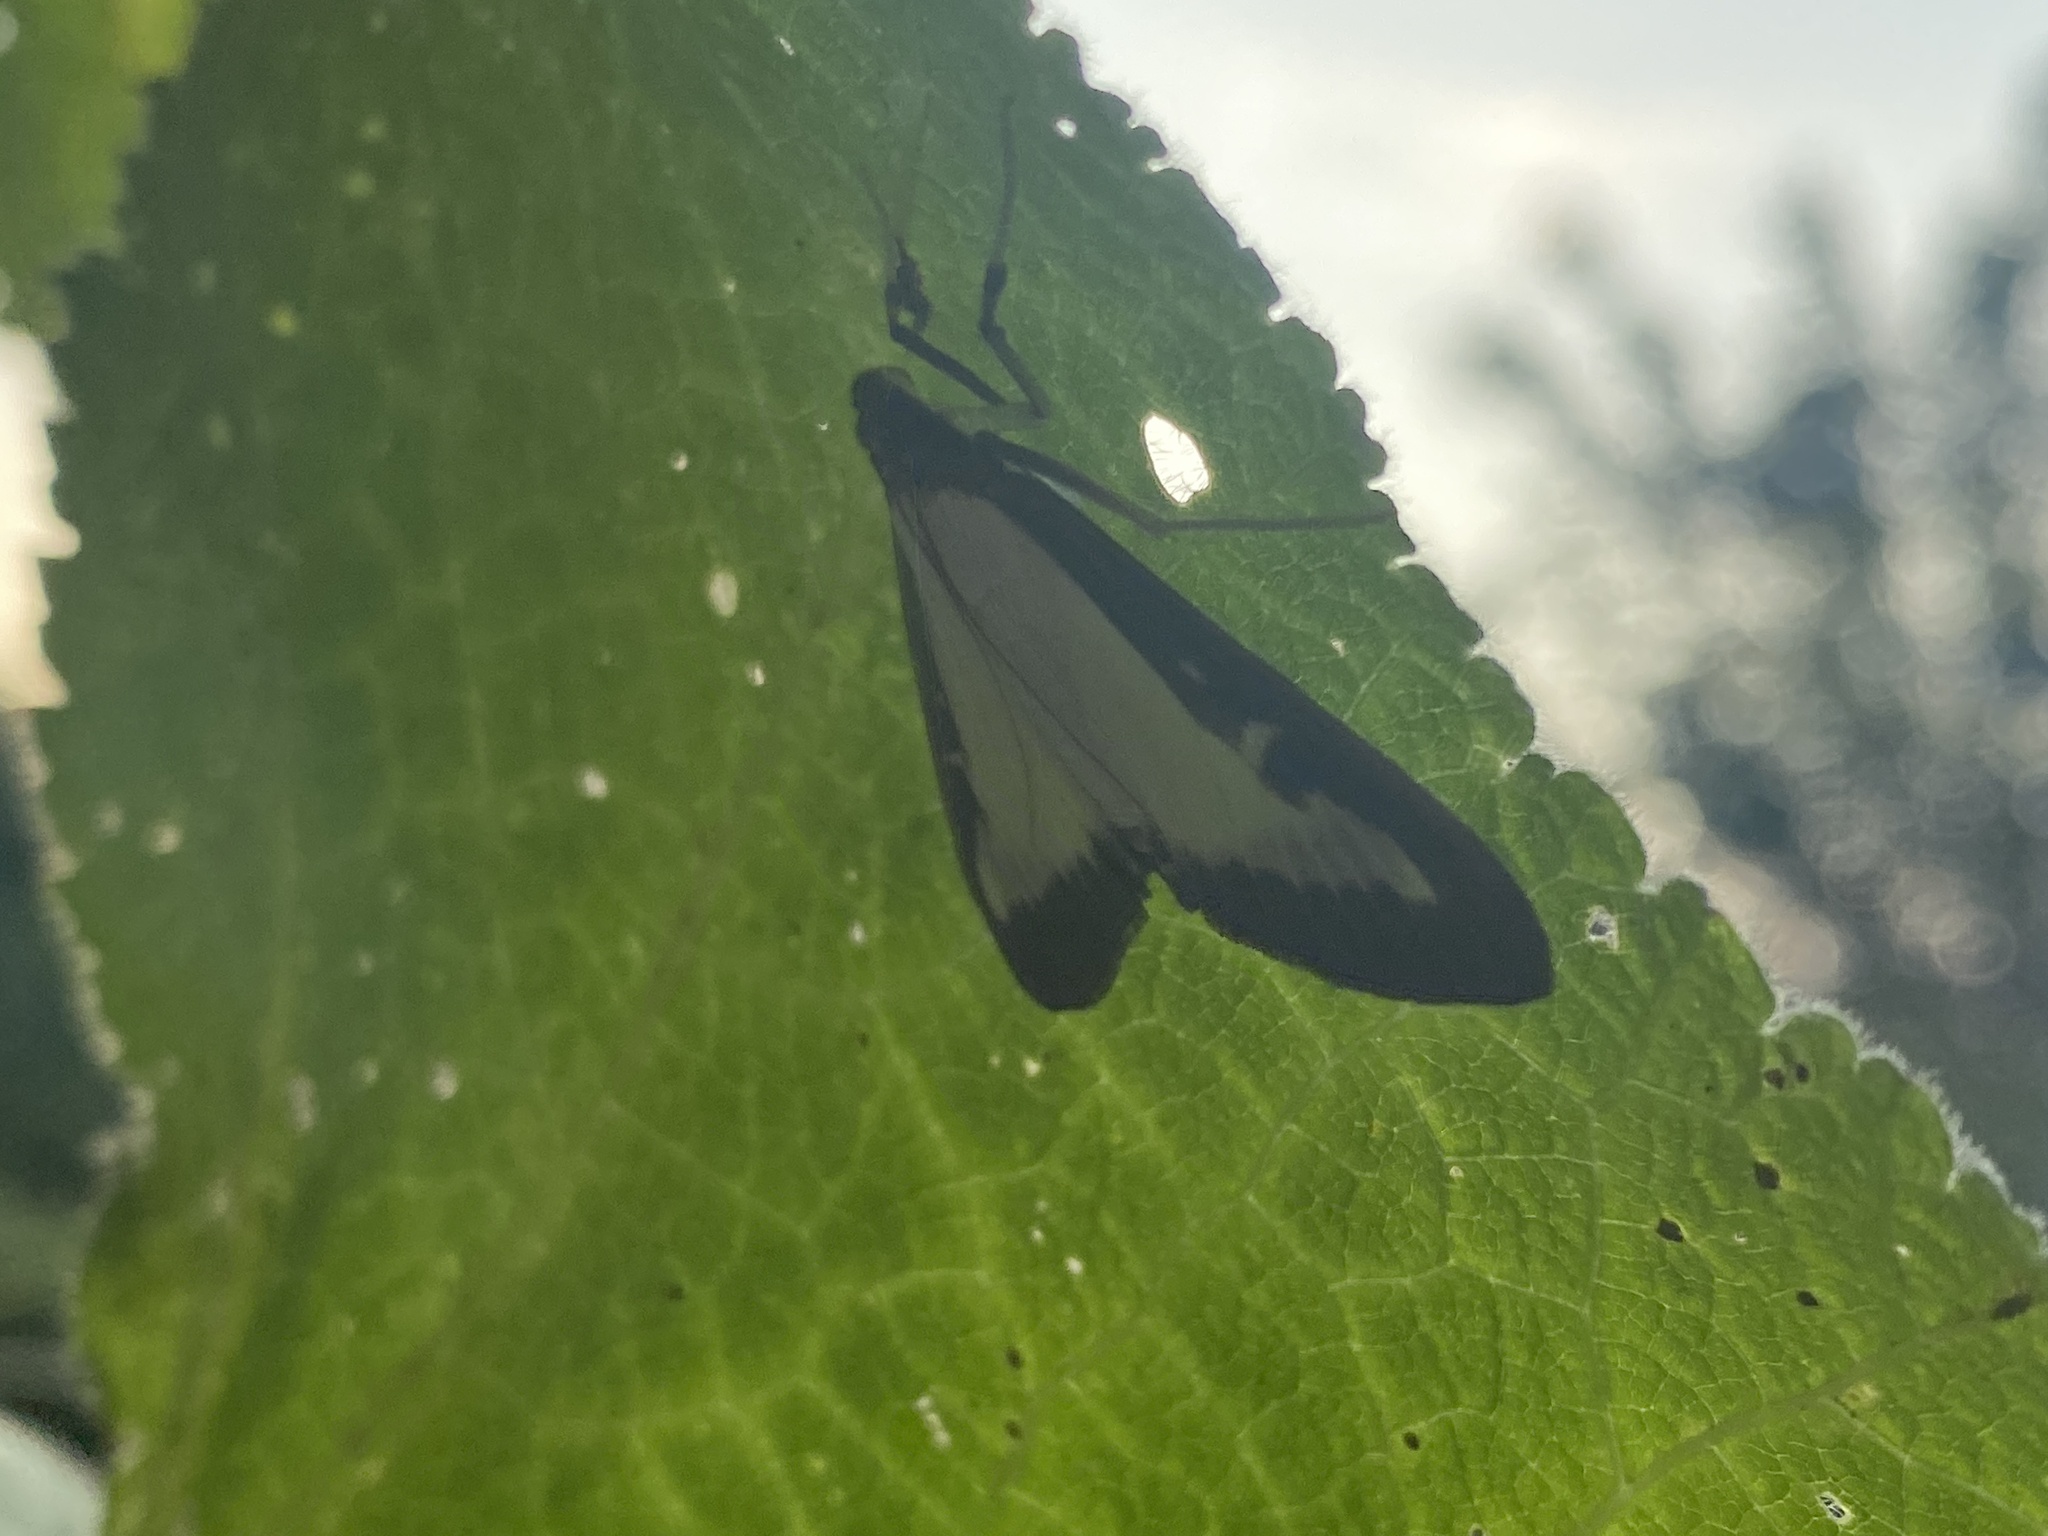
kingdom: Animalia
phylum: Arthropoda
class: Insecta
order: Lepidoptera
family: Crambidae
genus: Cydalima
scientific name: Cydalima perspectalis
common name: Box tree moth
